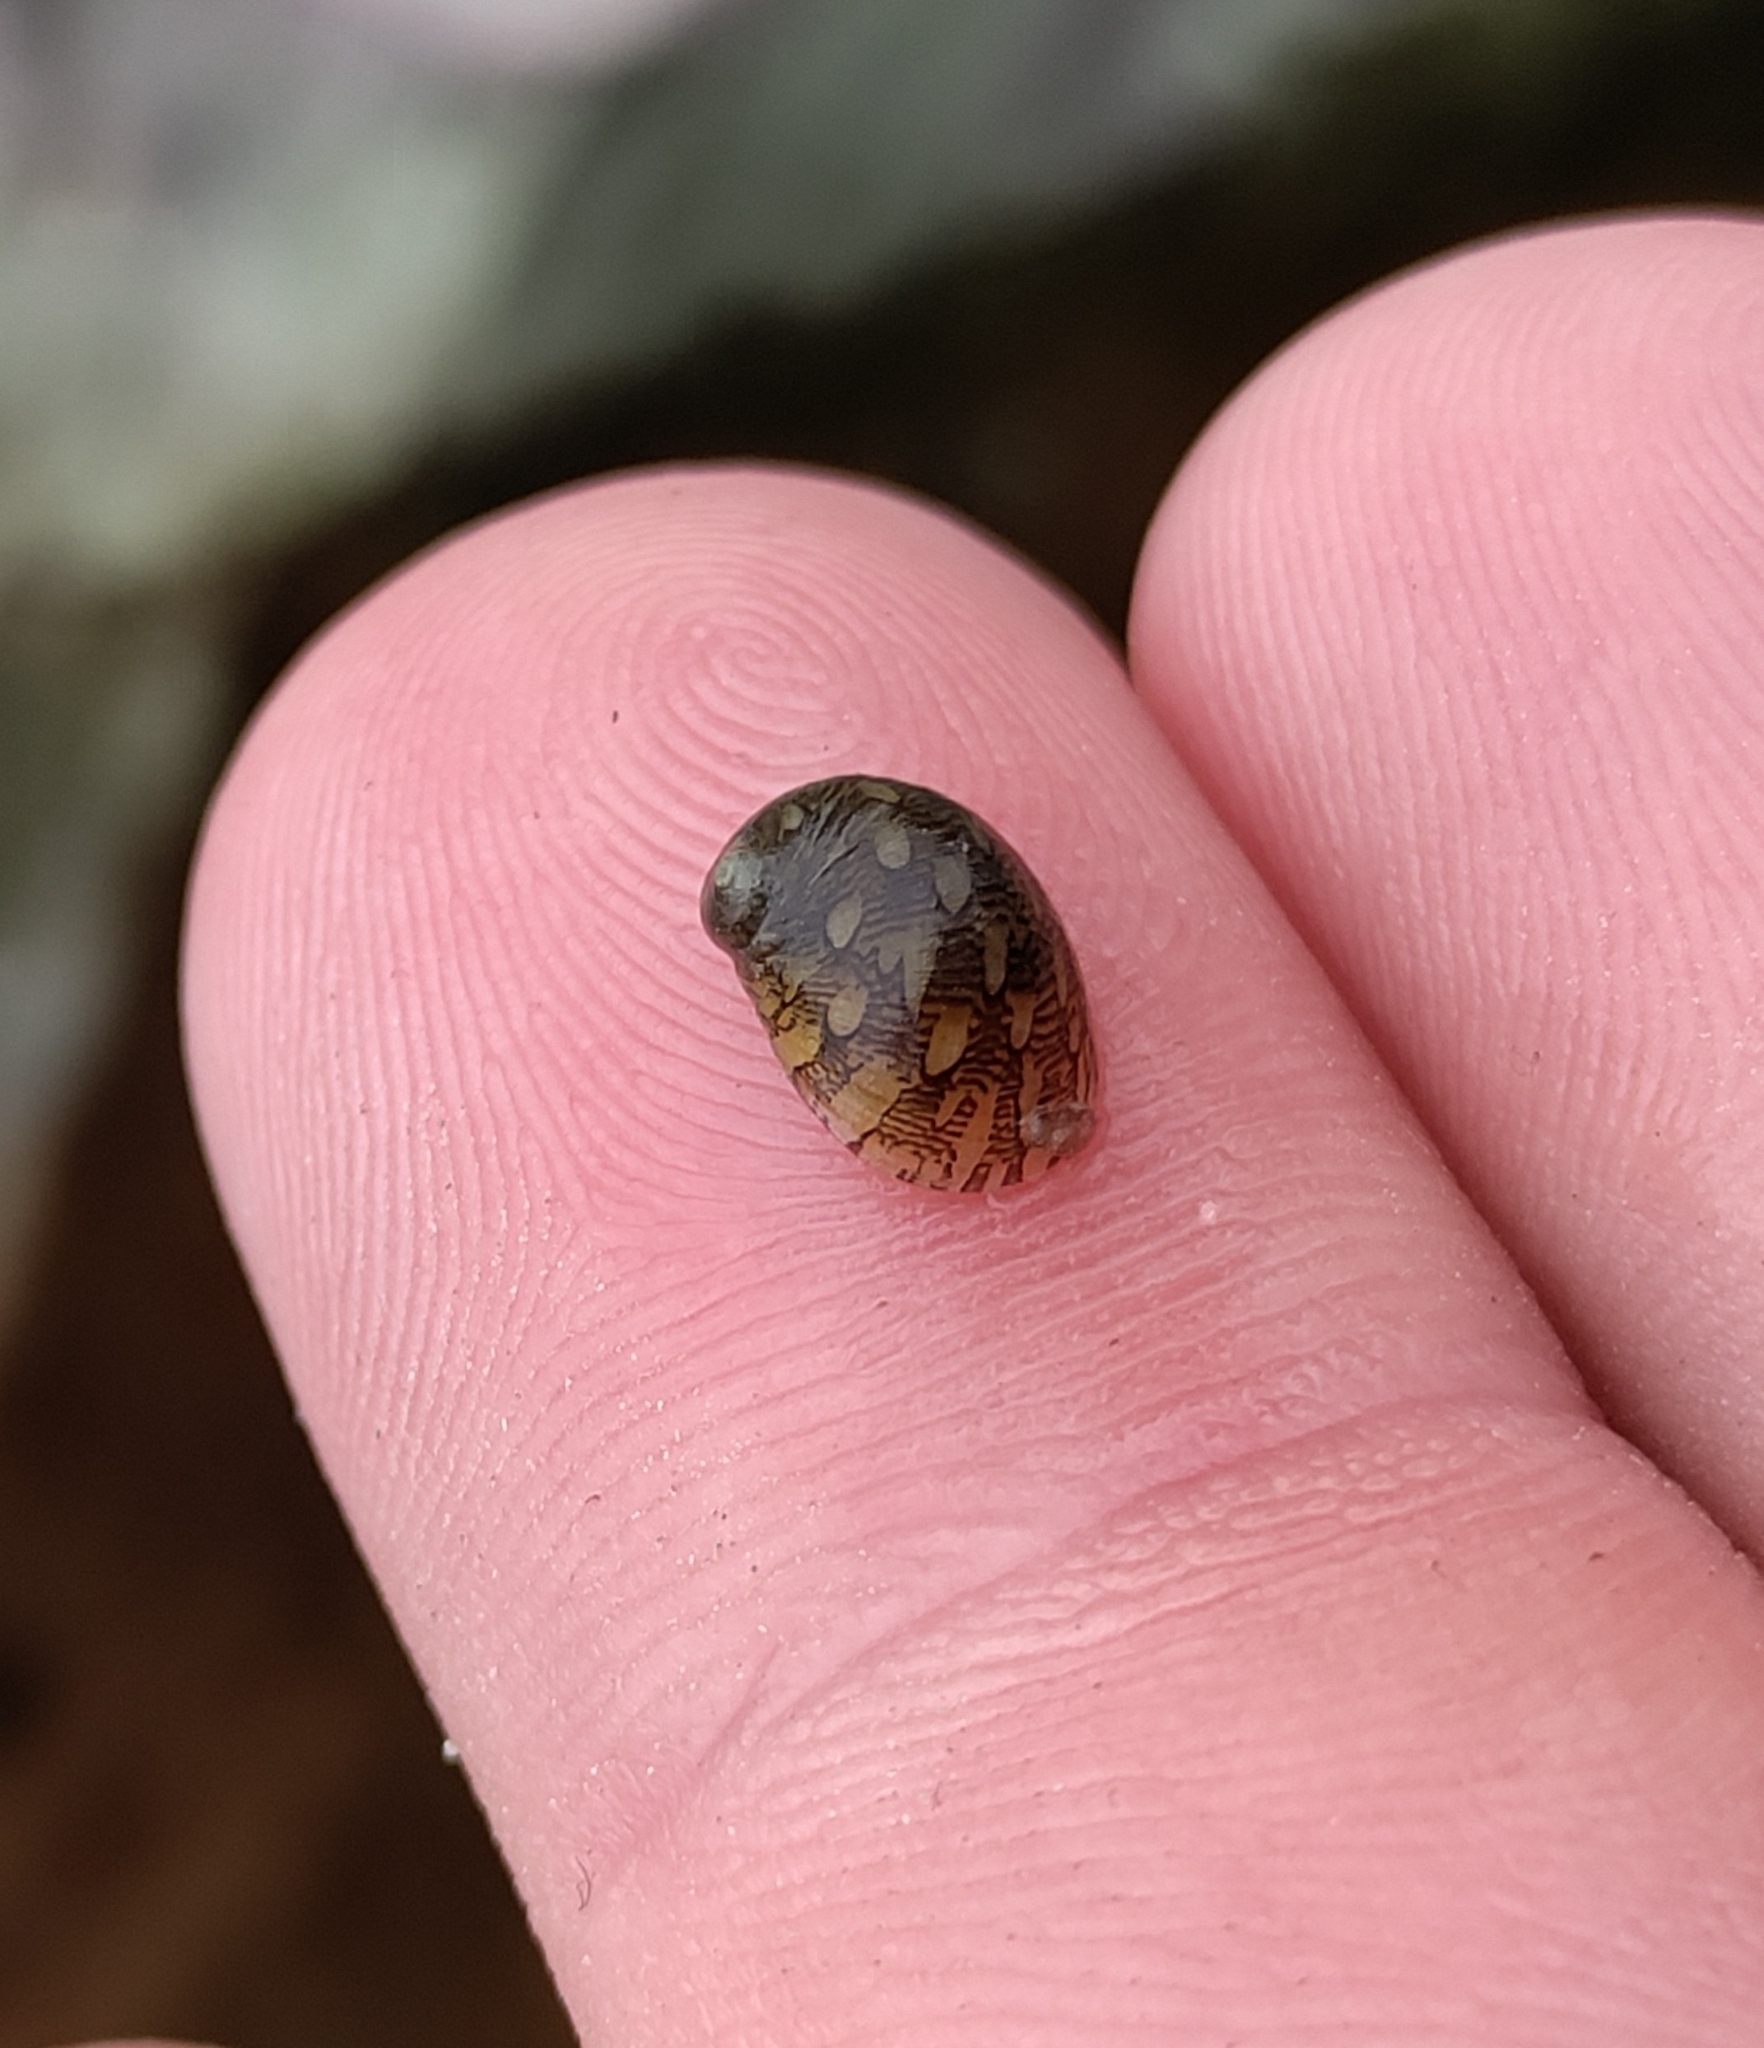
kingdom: Animalia
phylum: Mollusca
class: Gastropoda
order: Cycloneritida
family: Neritidae
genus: Theodoxus
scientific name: Theodoxus fluviatilis
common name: River nerite
